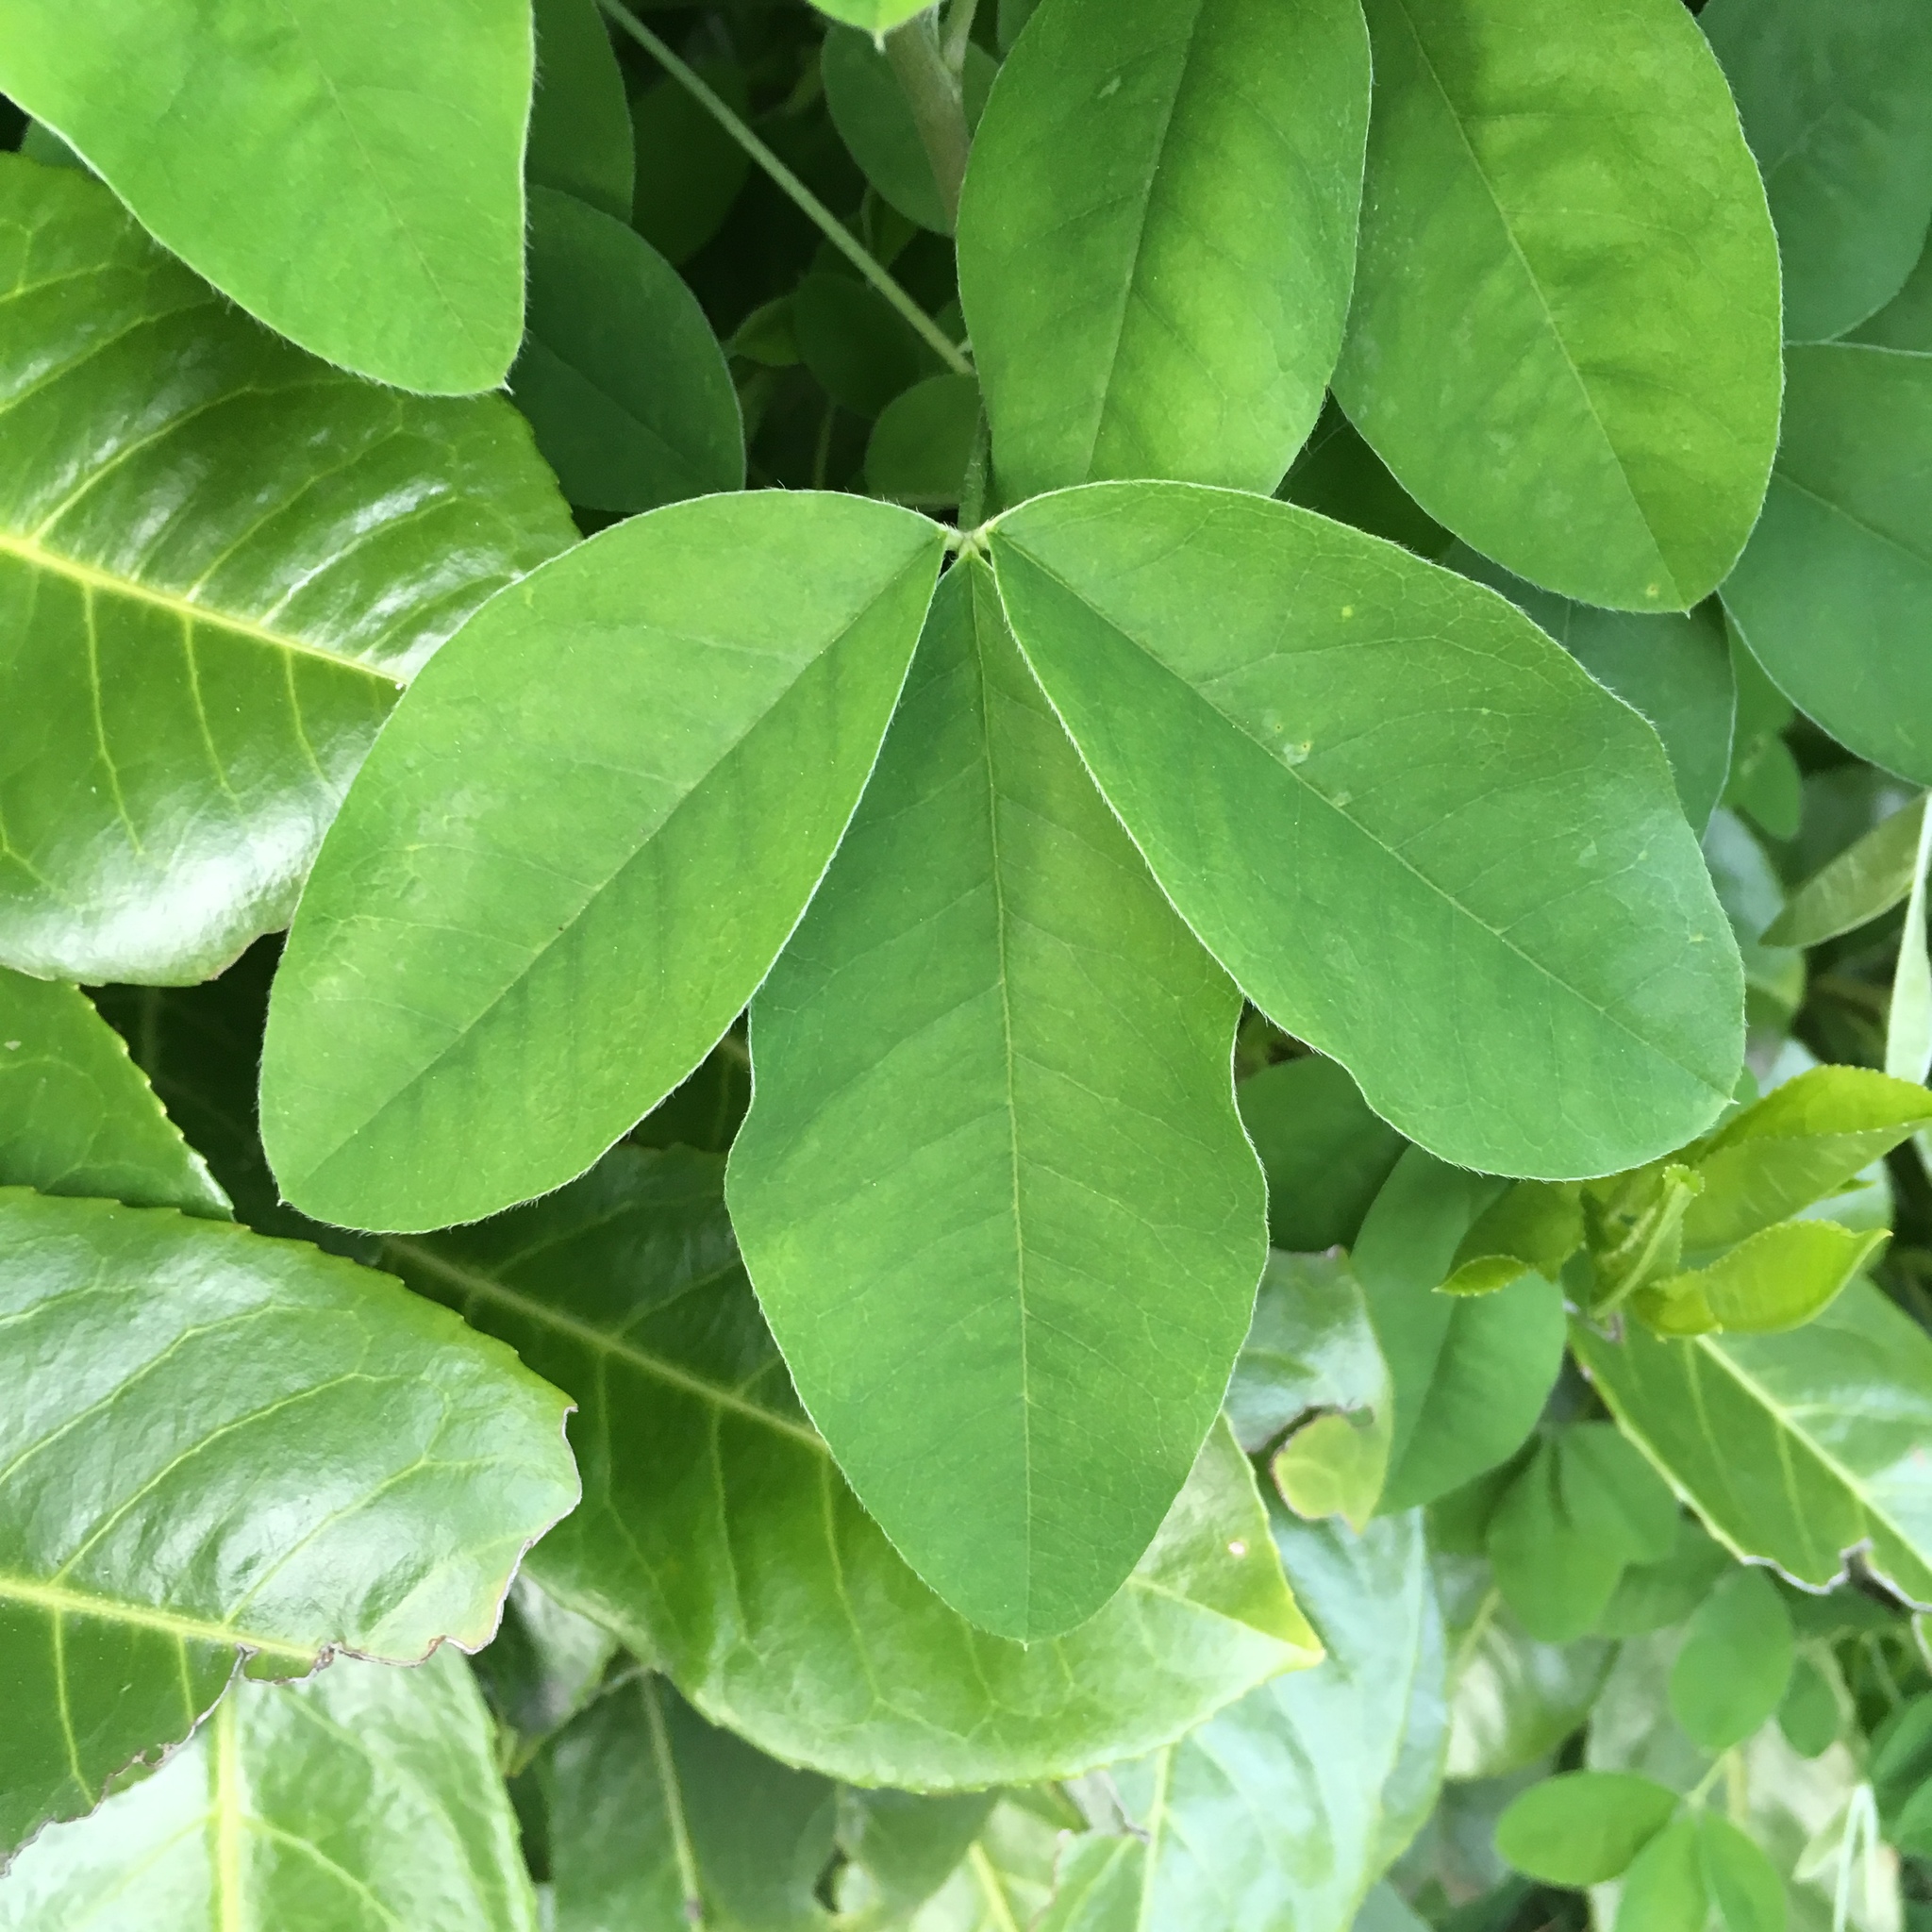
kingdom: Plantae
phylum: Tracheophyta
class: Magnoliopsida
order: Fabales
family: Fabaceae
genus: Laburnum
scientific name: Laburnum anagyroides
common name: Laburnum
